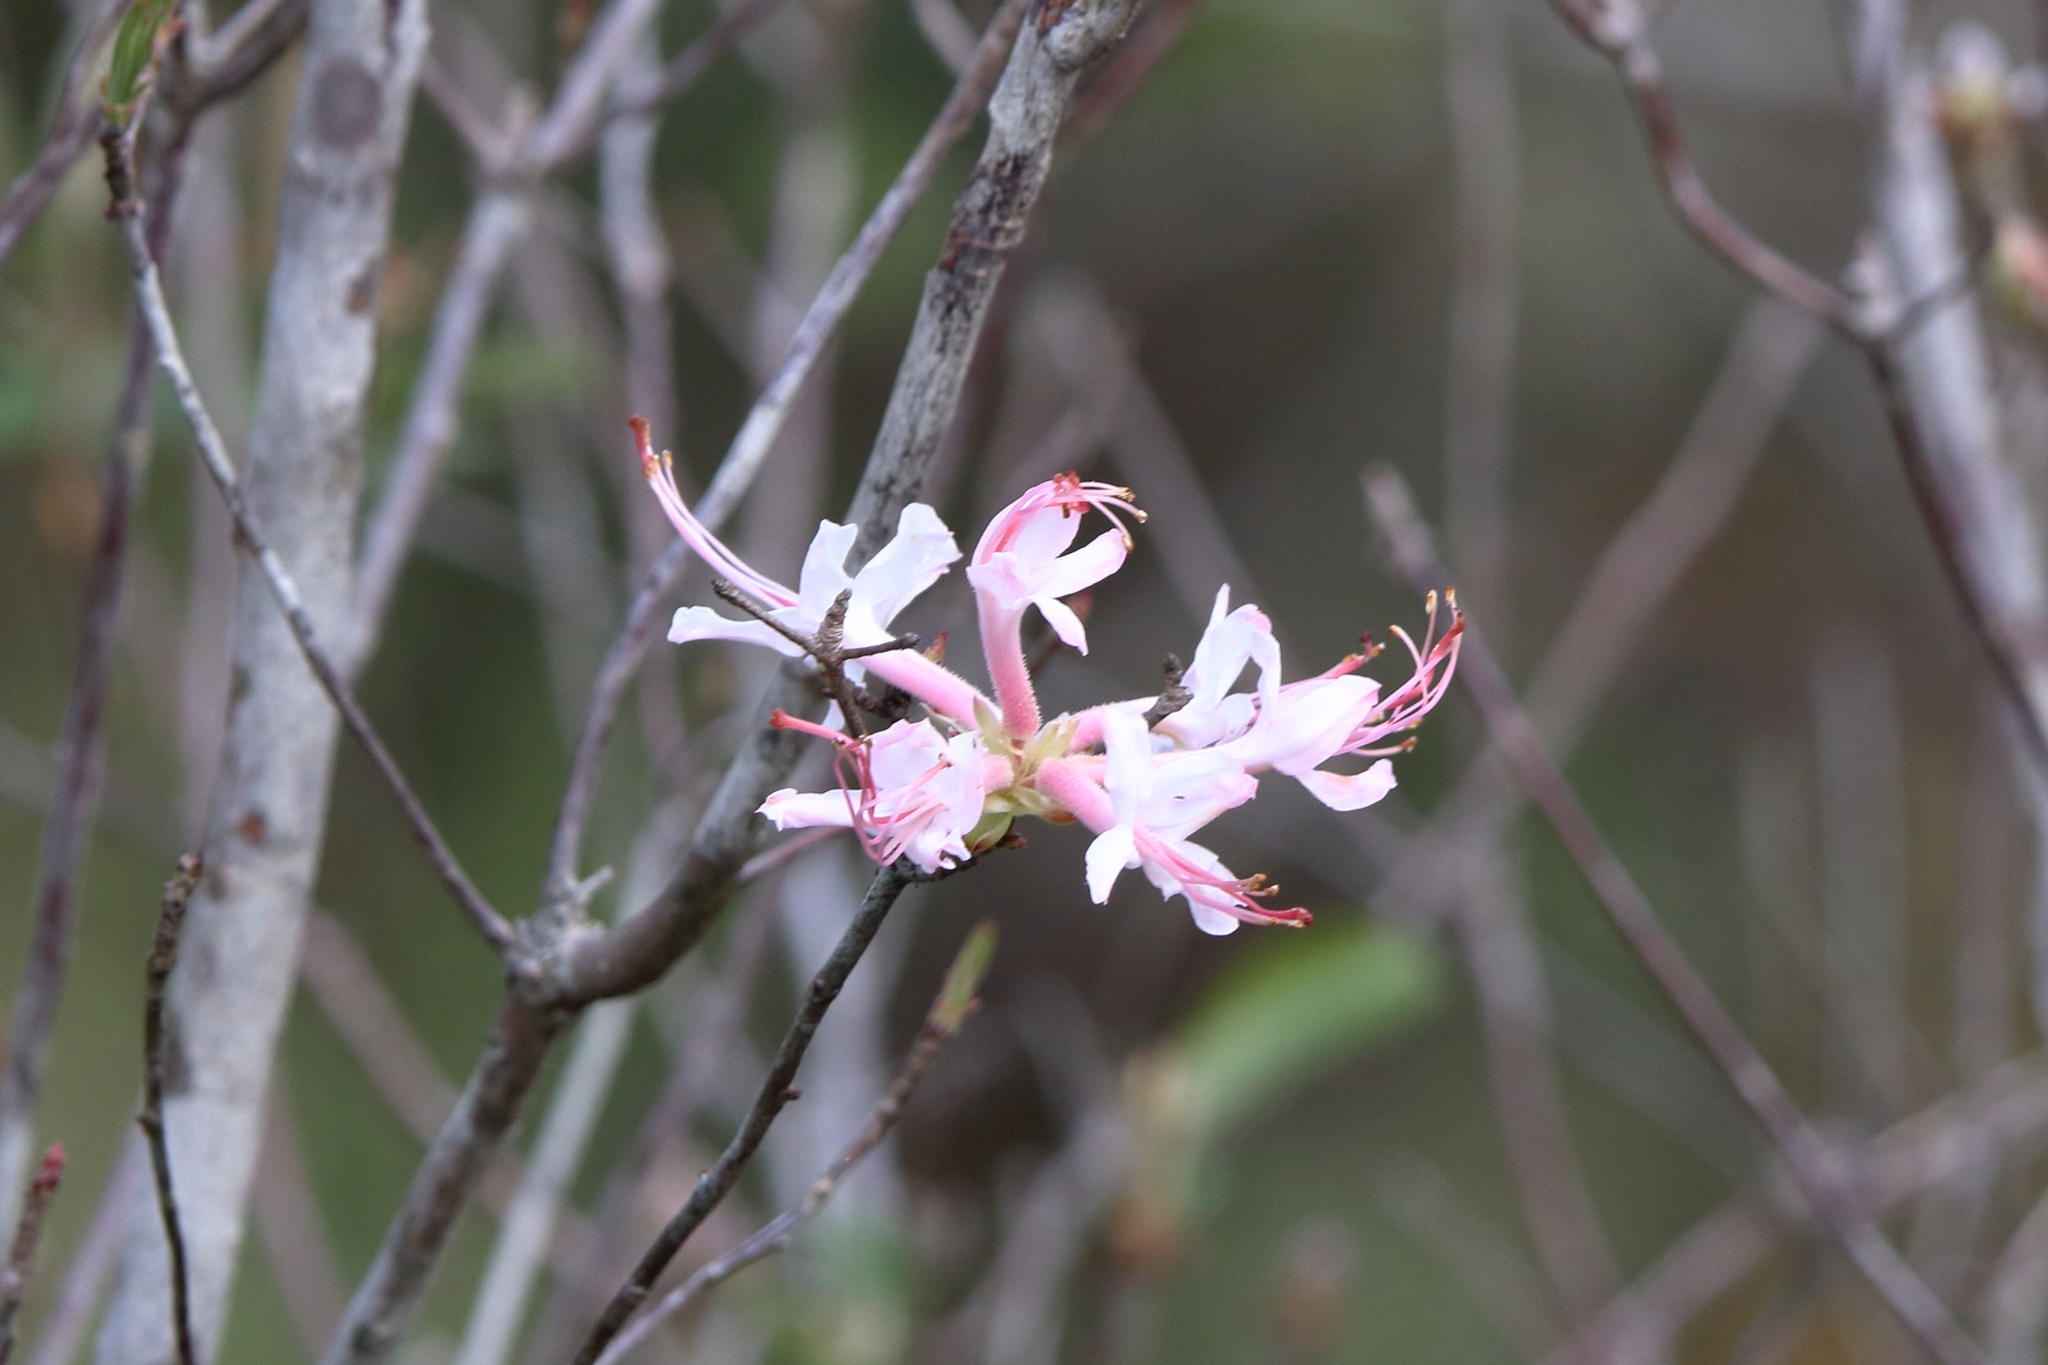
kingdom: Plantae
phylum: Tracheophyta
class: Magnoliopsida
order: Ericales
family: Ericaceae
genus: Rhododendron
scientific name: Rhododendron canescens
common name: Mountain azalea
